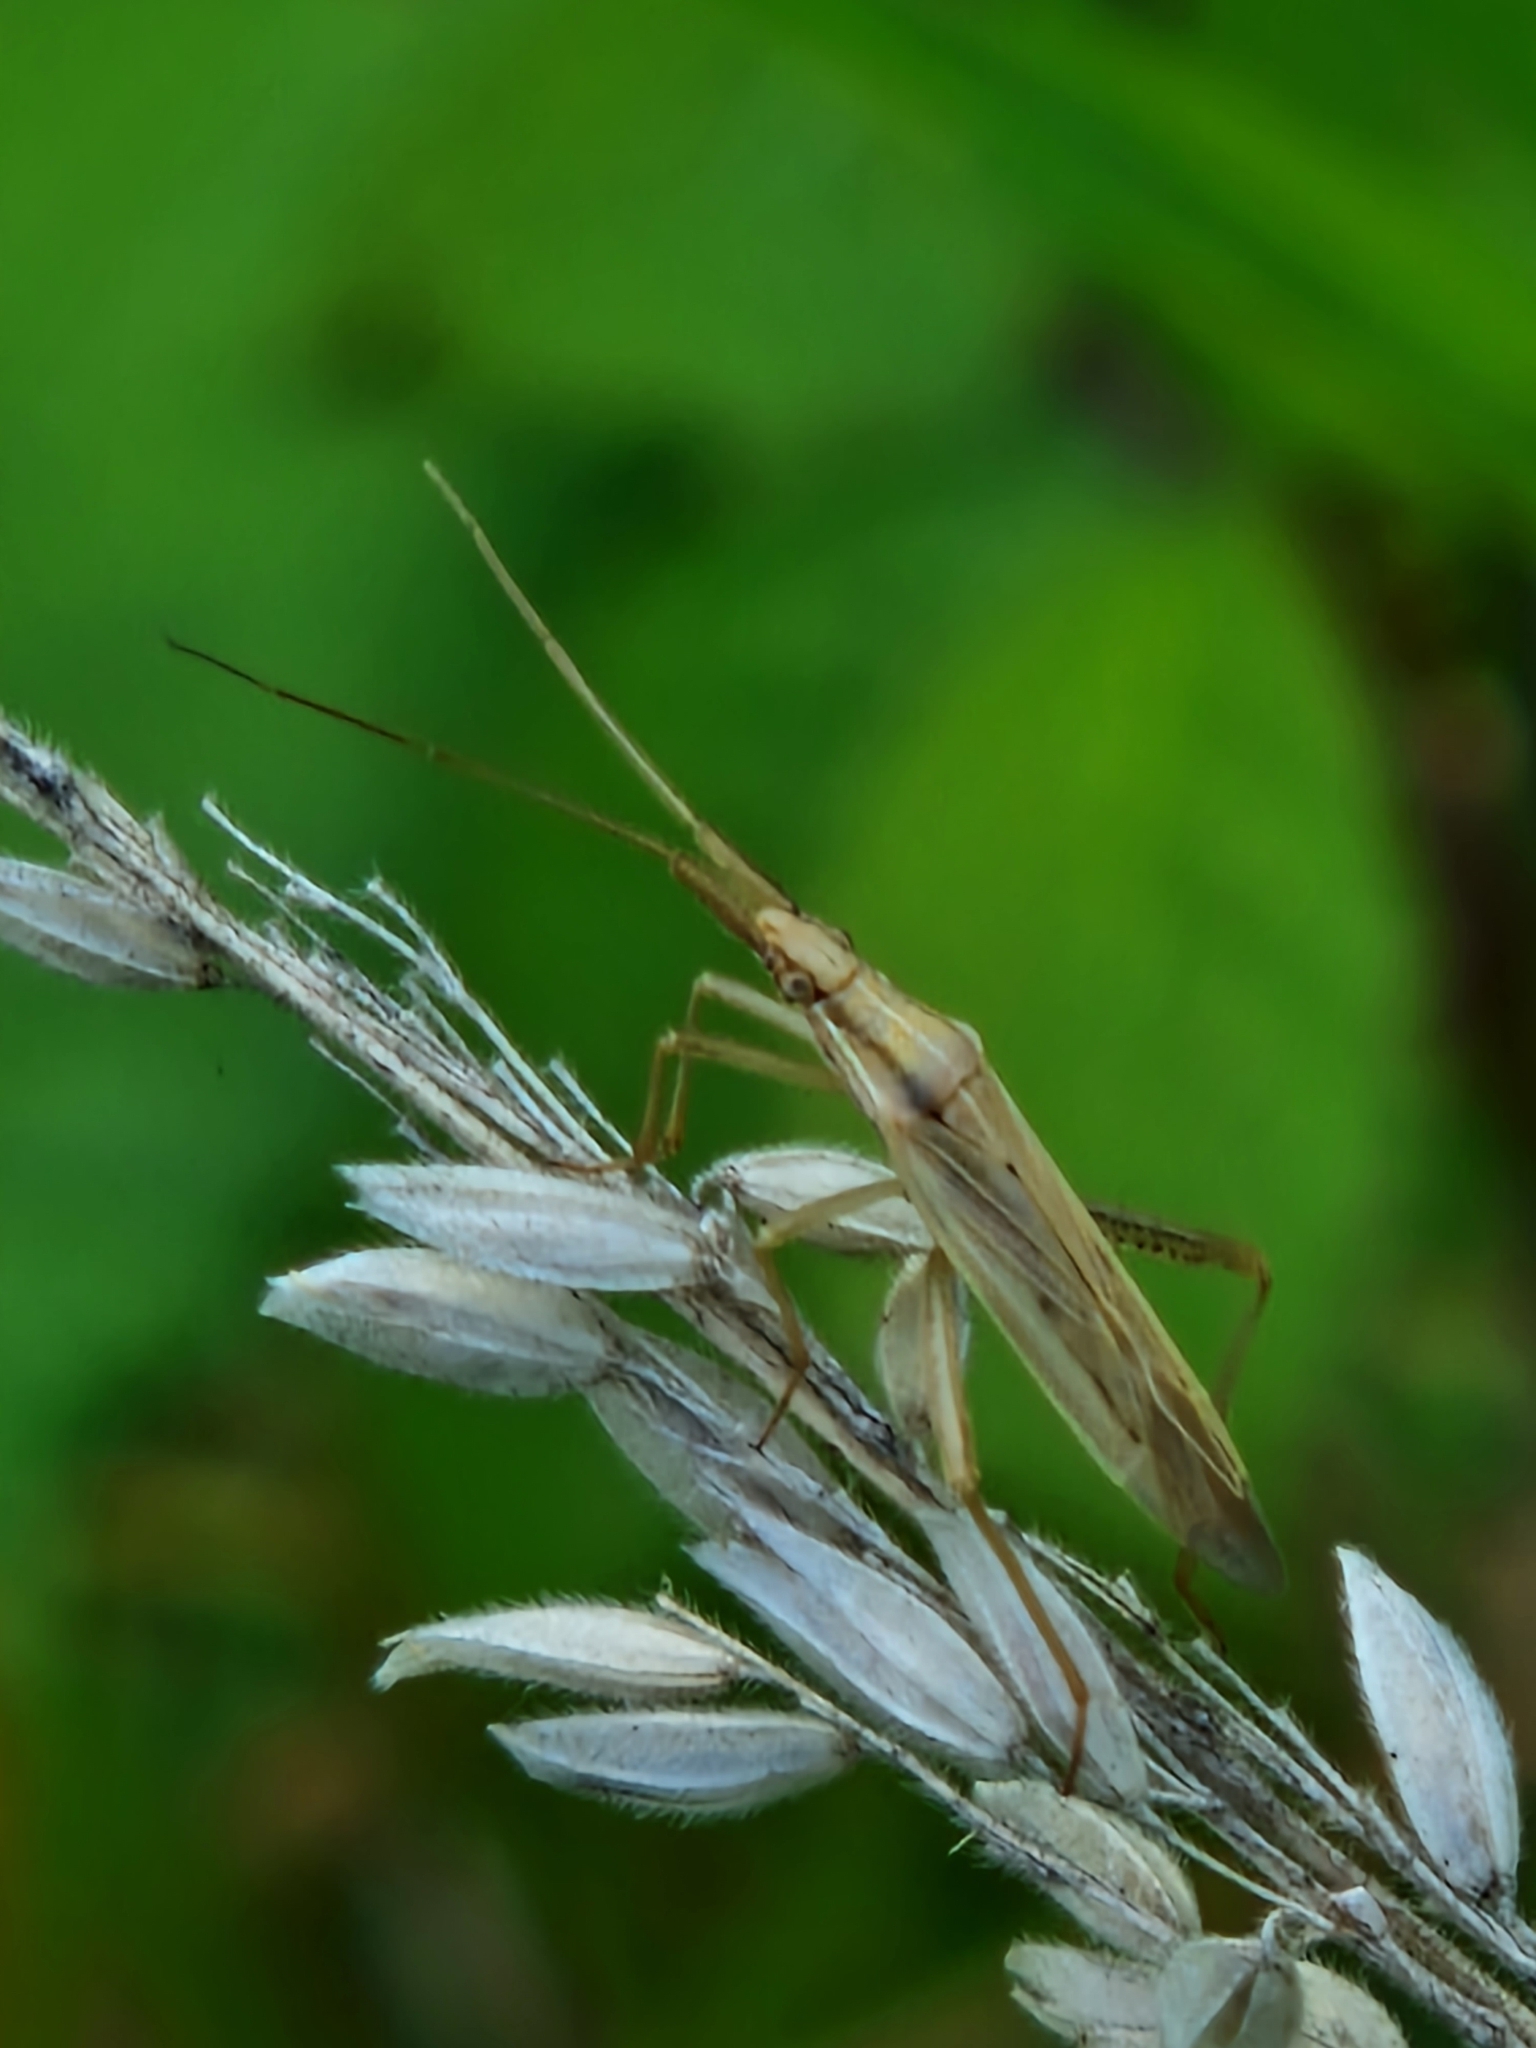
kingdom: Animalia
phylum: Arthropoda
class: Insecta
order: Hemiptera
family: Miridae
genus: Stenodema
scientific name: Stenodema laevigata
